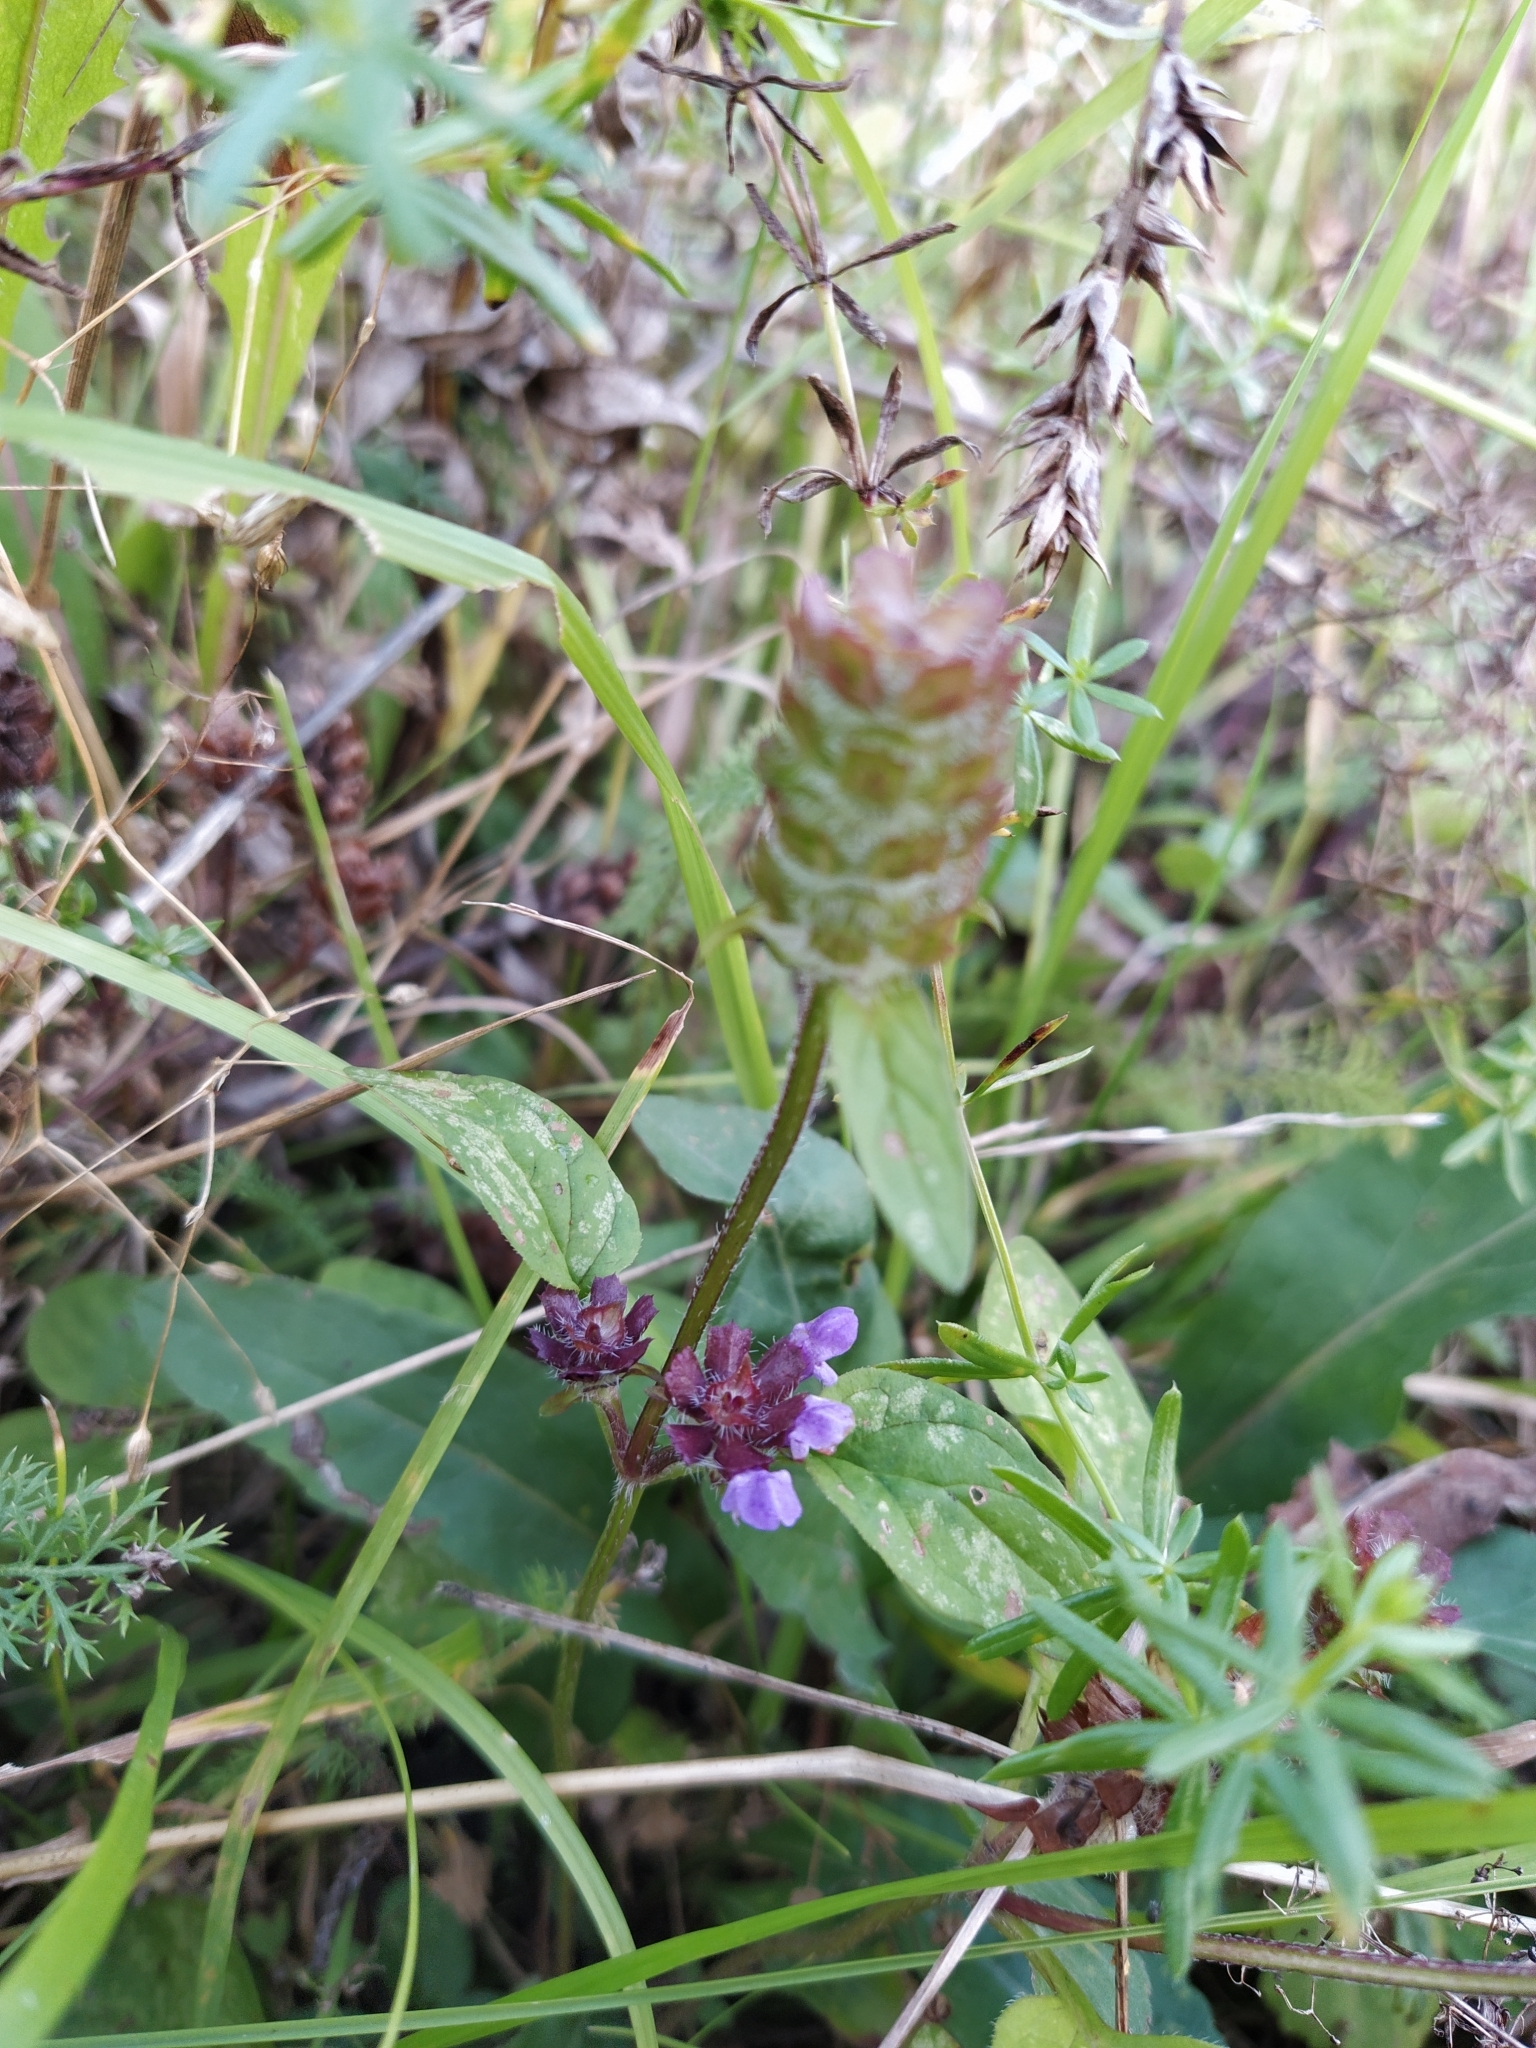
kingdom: Plantae
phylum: Tracheophyta
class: Magnoliopsida
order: Lamiales
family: Lamiaceae
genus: Prunella
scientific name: Prunella vulgaris
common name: Heal-all
